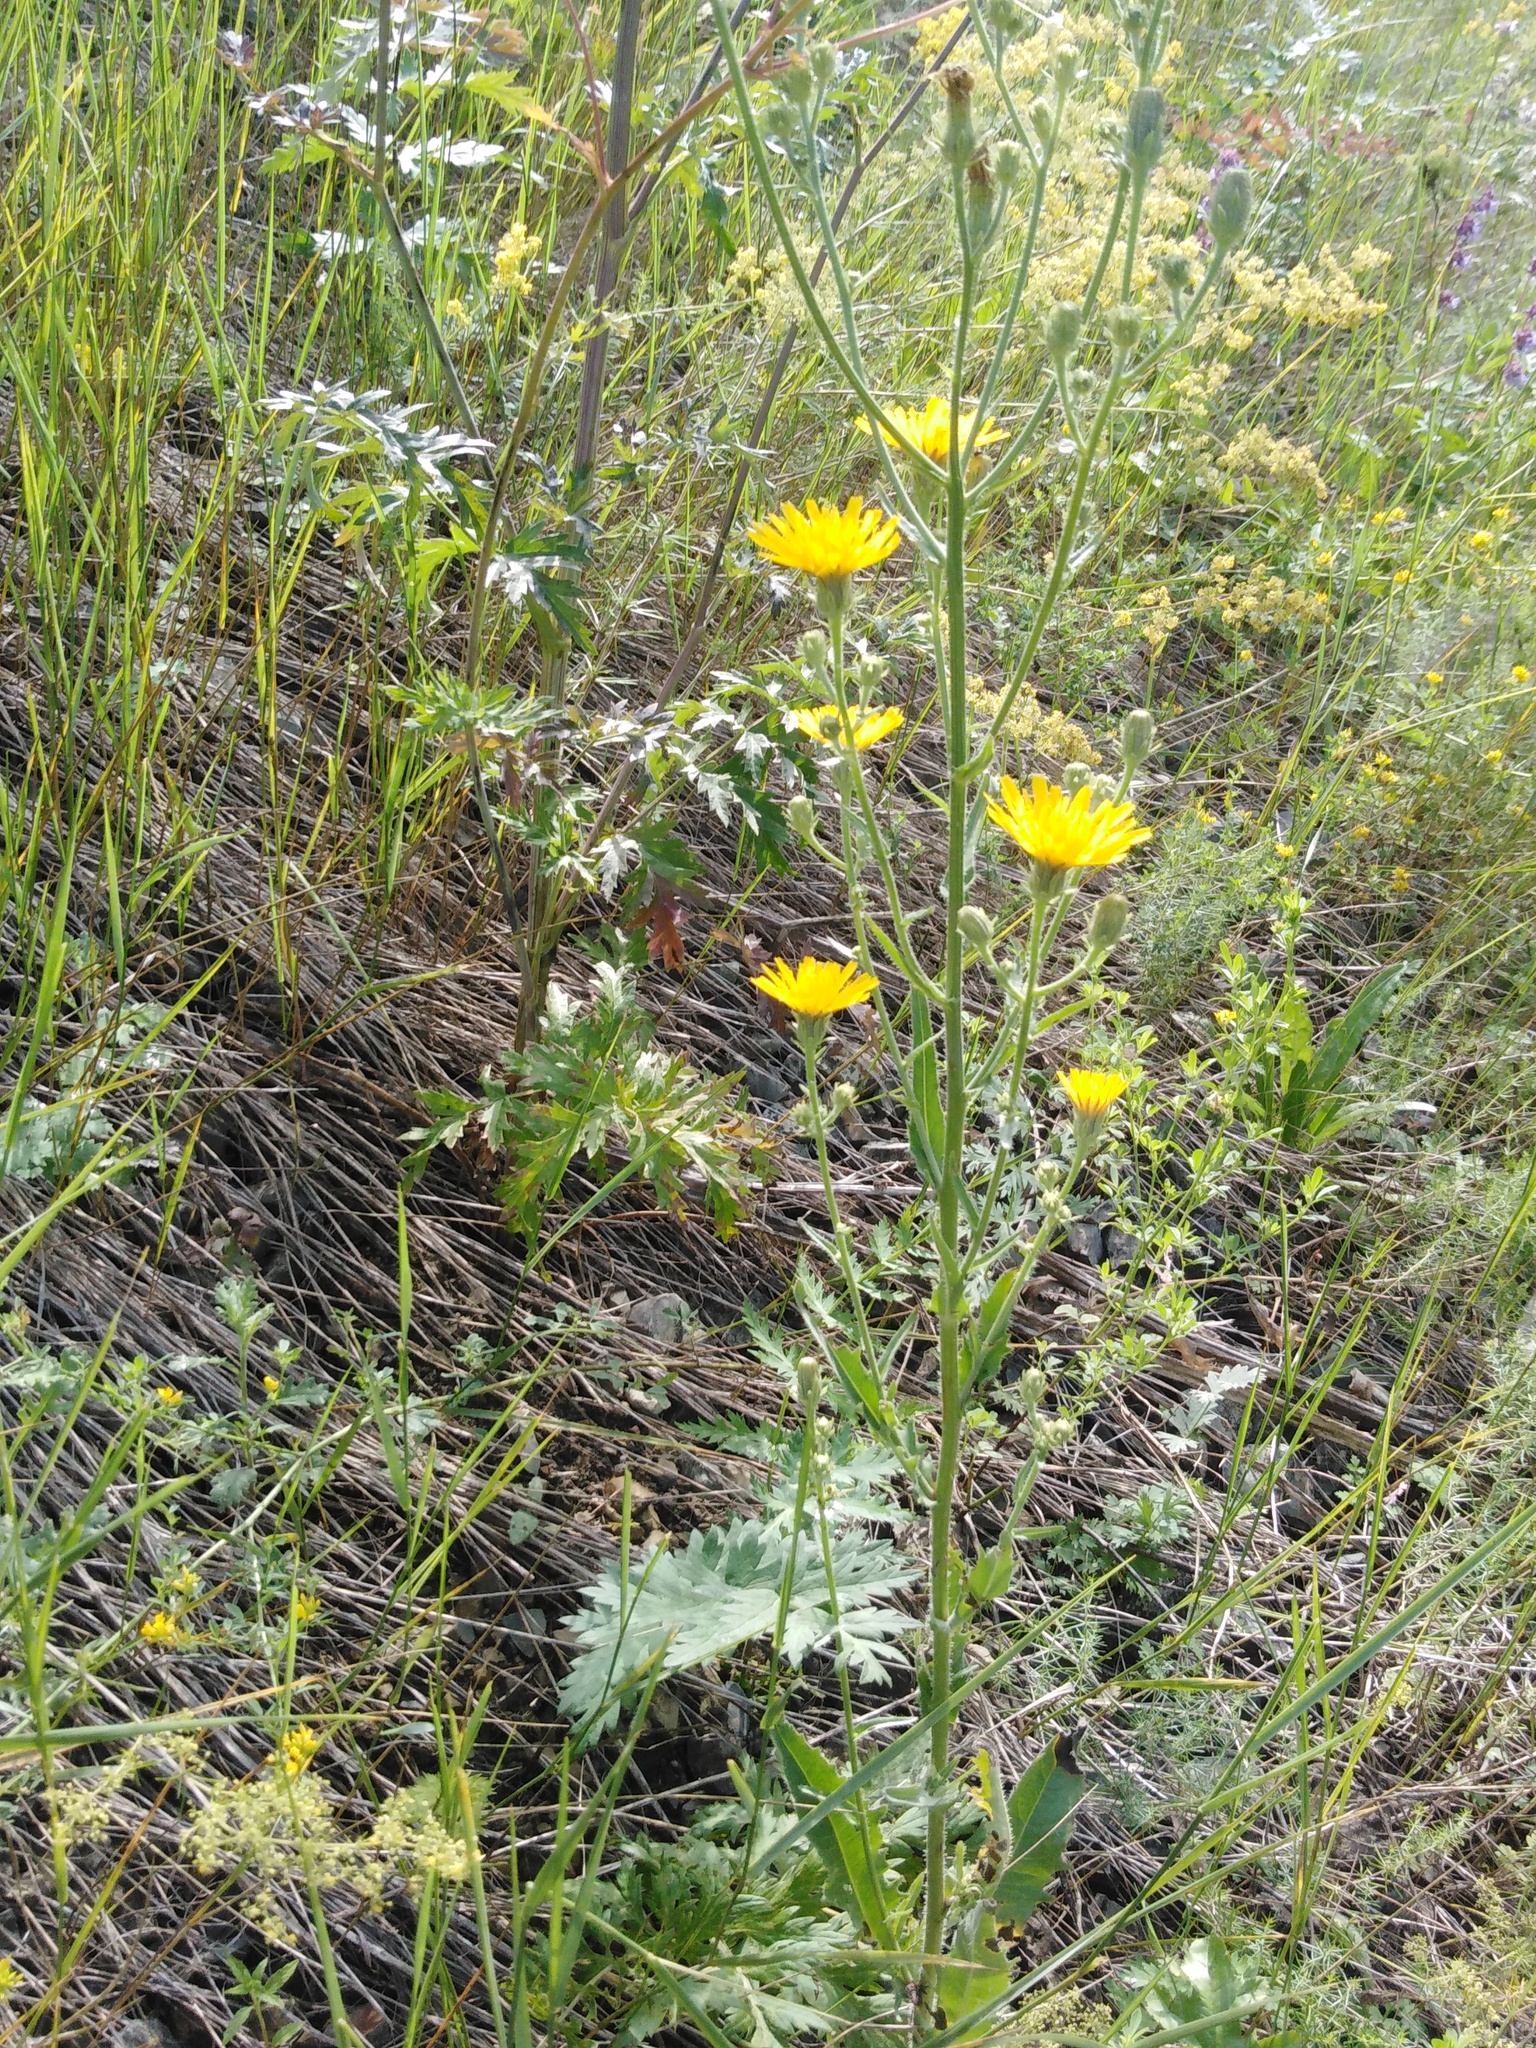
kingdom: Plantae
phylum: Tracheophyta
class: Magnoliopsida
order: Asterales
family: Asteraceae
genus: Picris
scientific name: Picris hieracioides
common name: Hawkweed oxtongue
